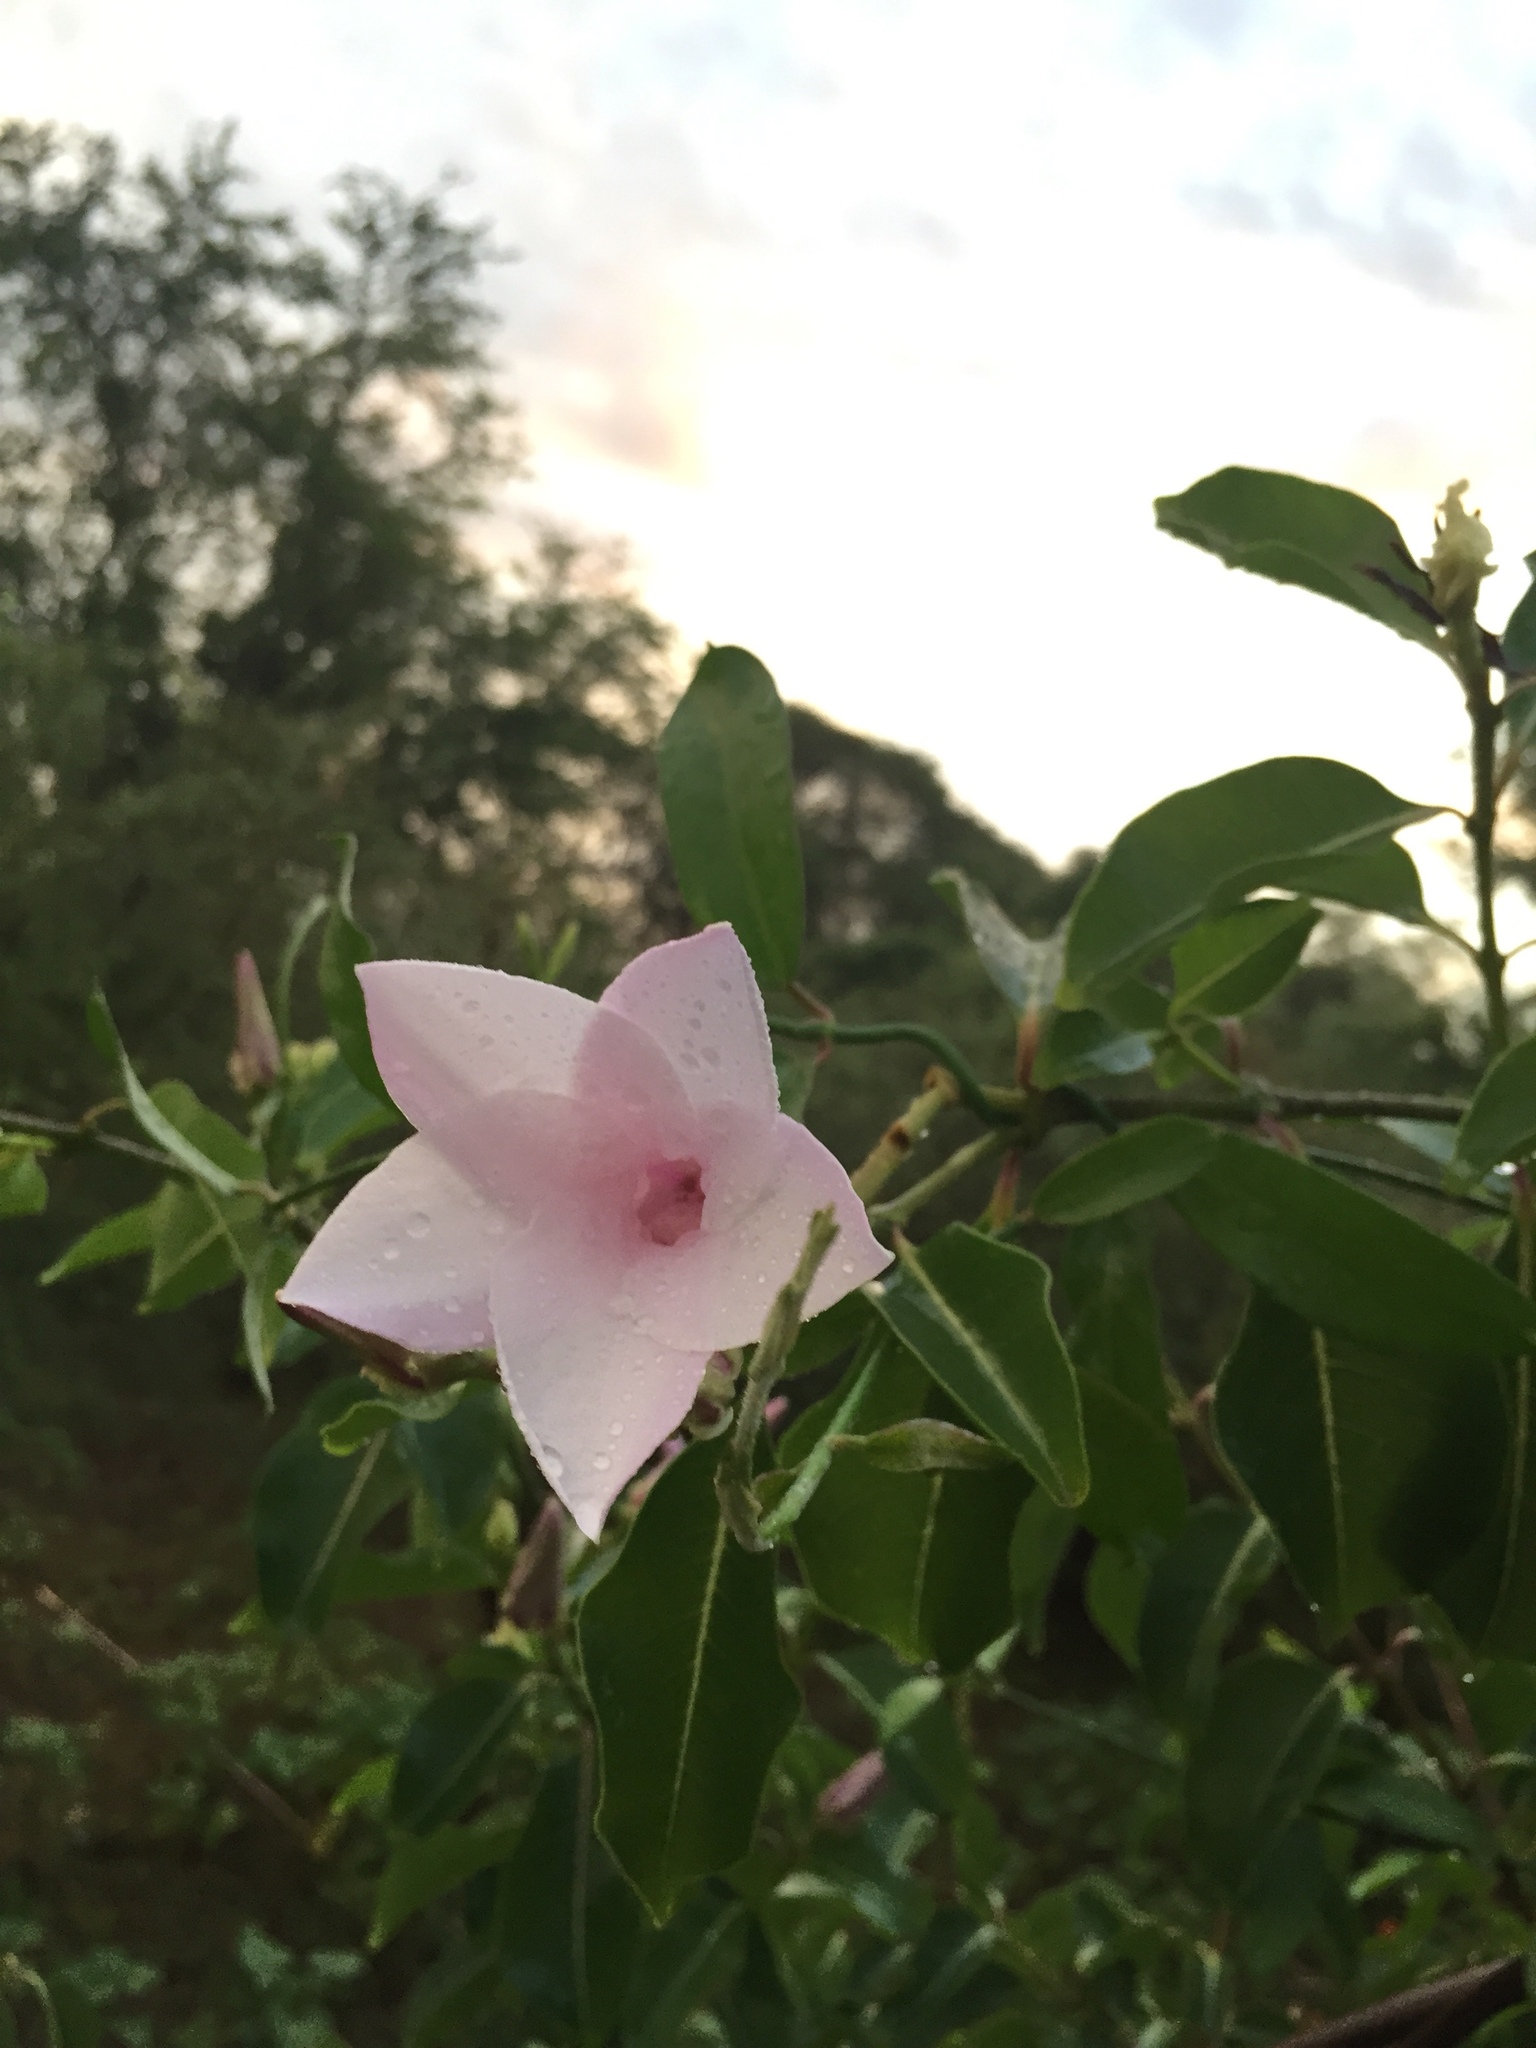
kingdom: Plantae
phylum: Tracheophyta
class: Magnoliopsida
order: Gentianales
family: Apocynaceae
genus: Cryptostegia
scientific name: Cryptostegia grandiflora
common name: Palay rubbervine
